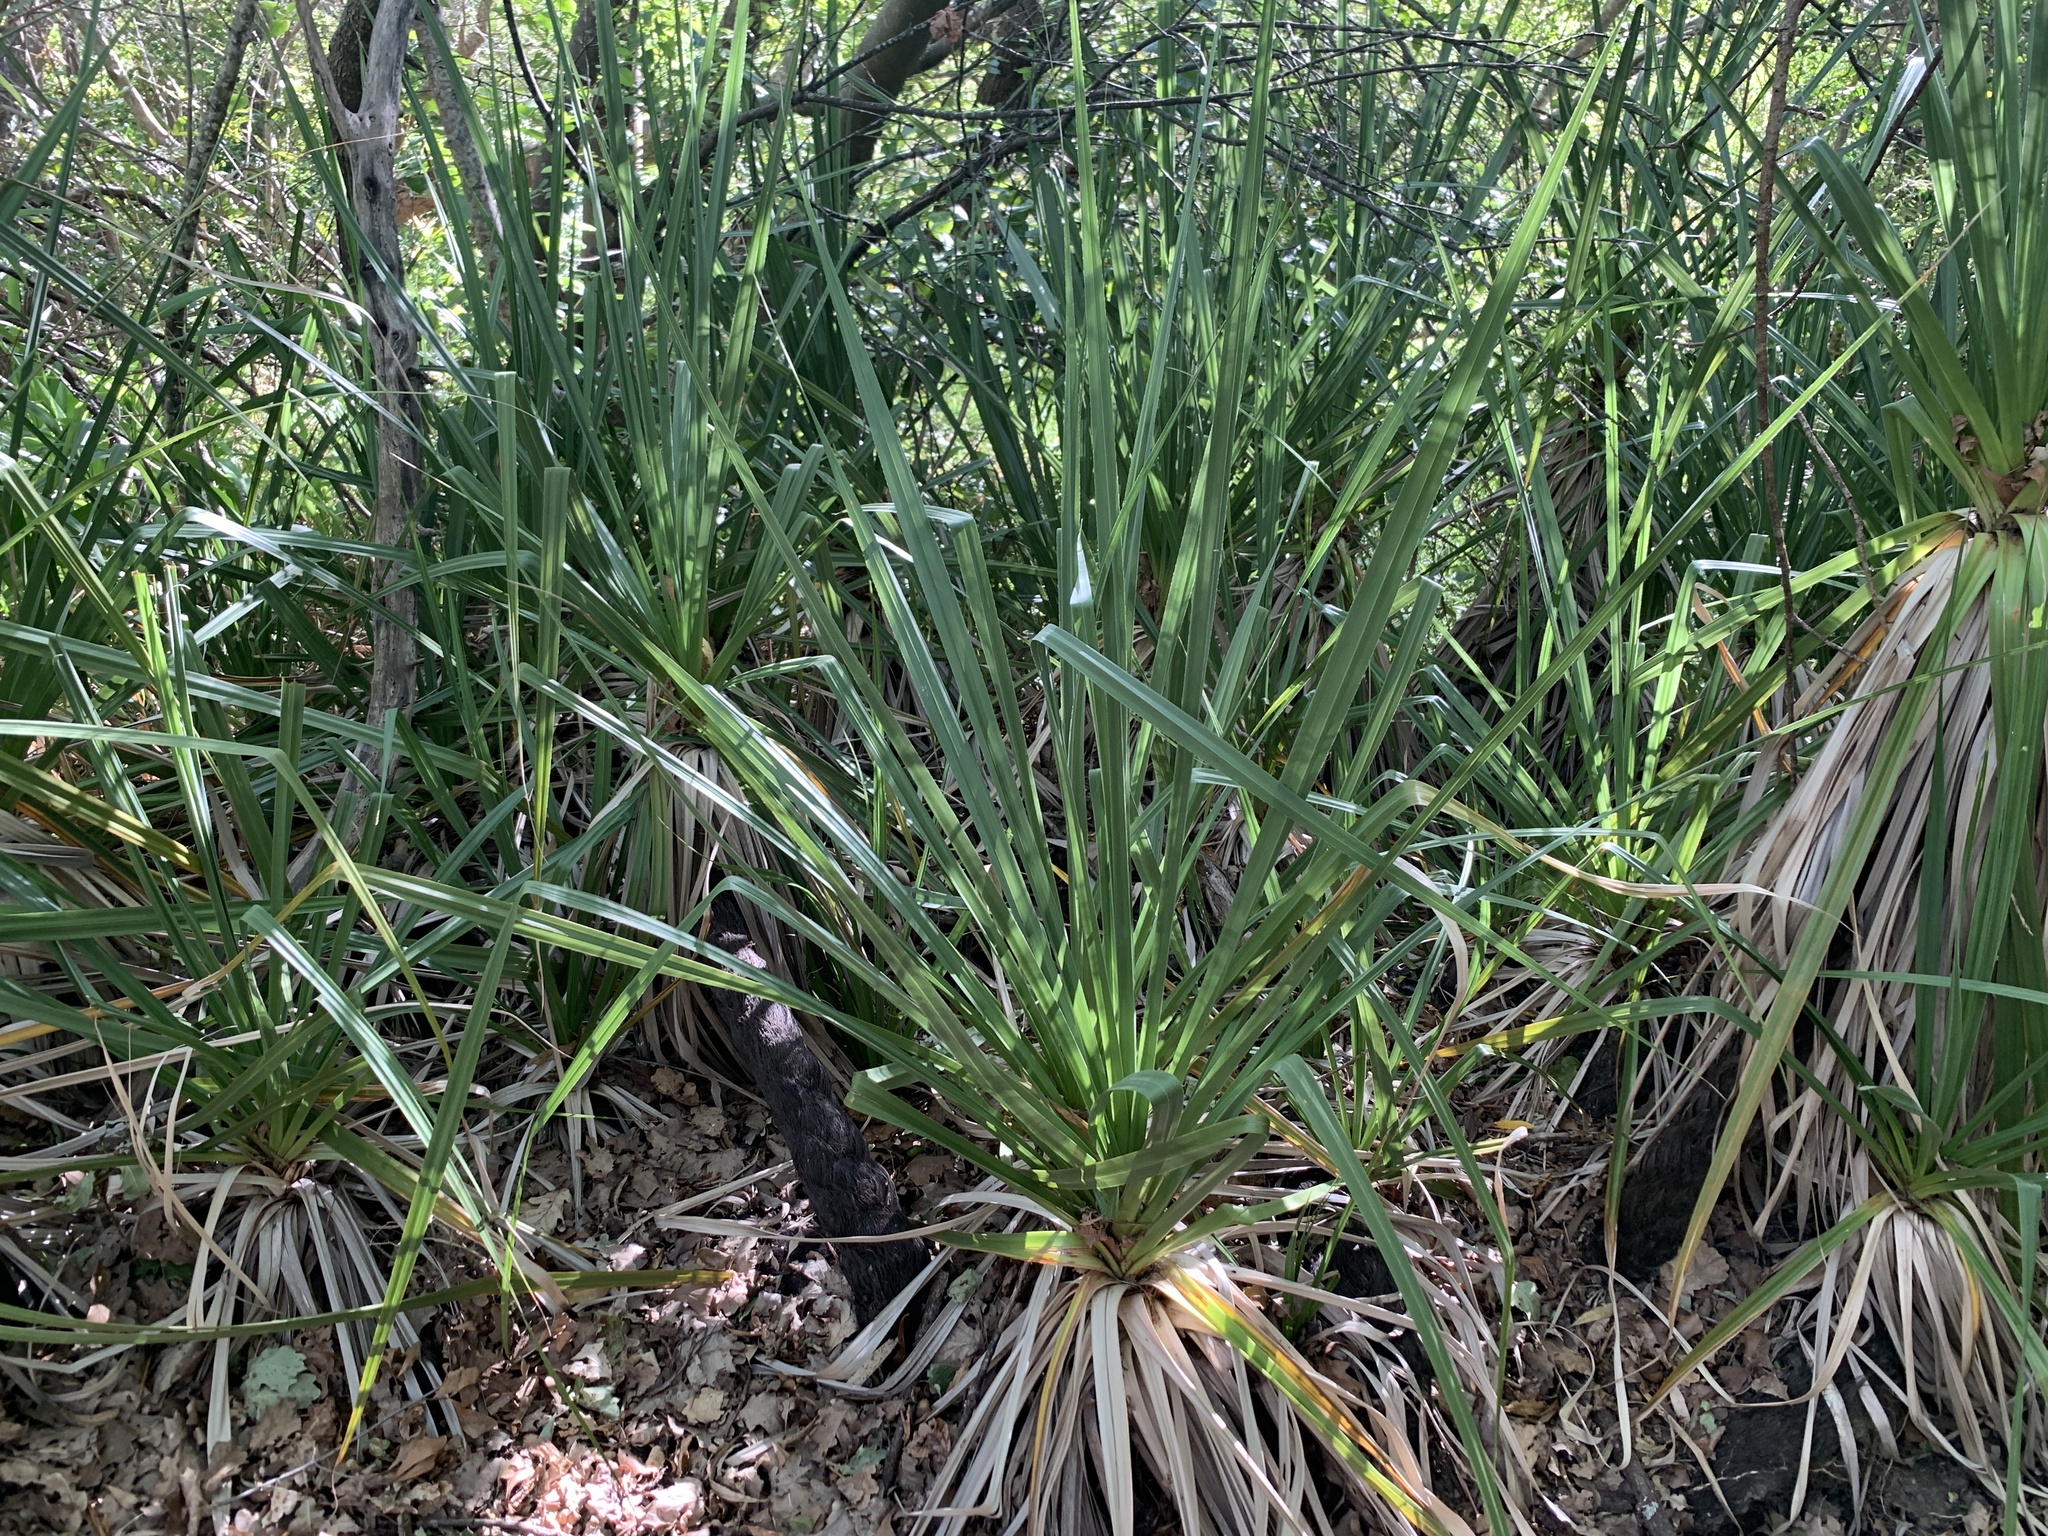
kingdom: Plantae
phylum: Tracheophyta
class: Liliopsida
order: Poales
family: Thurniaceae
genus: Prionium
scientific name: Prionium serratum
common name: Palmiet
